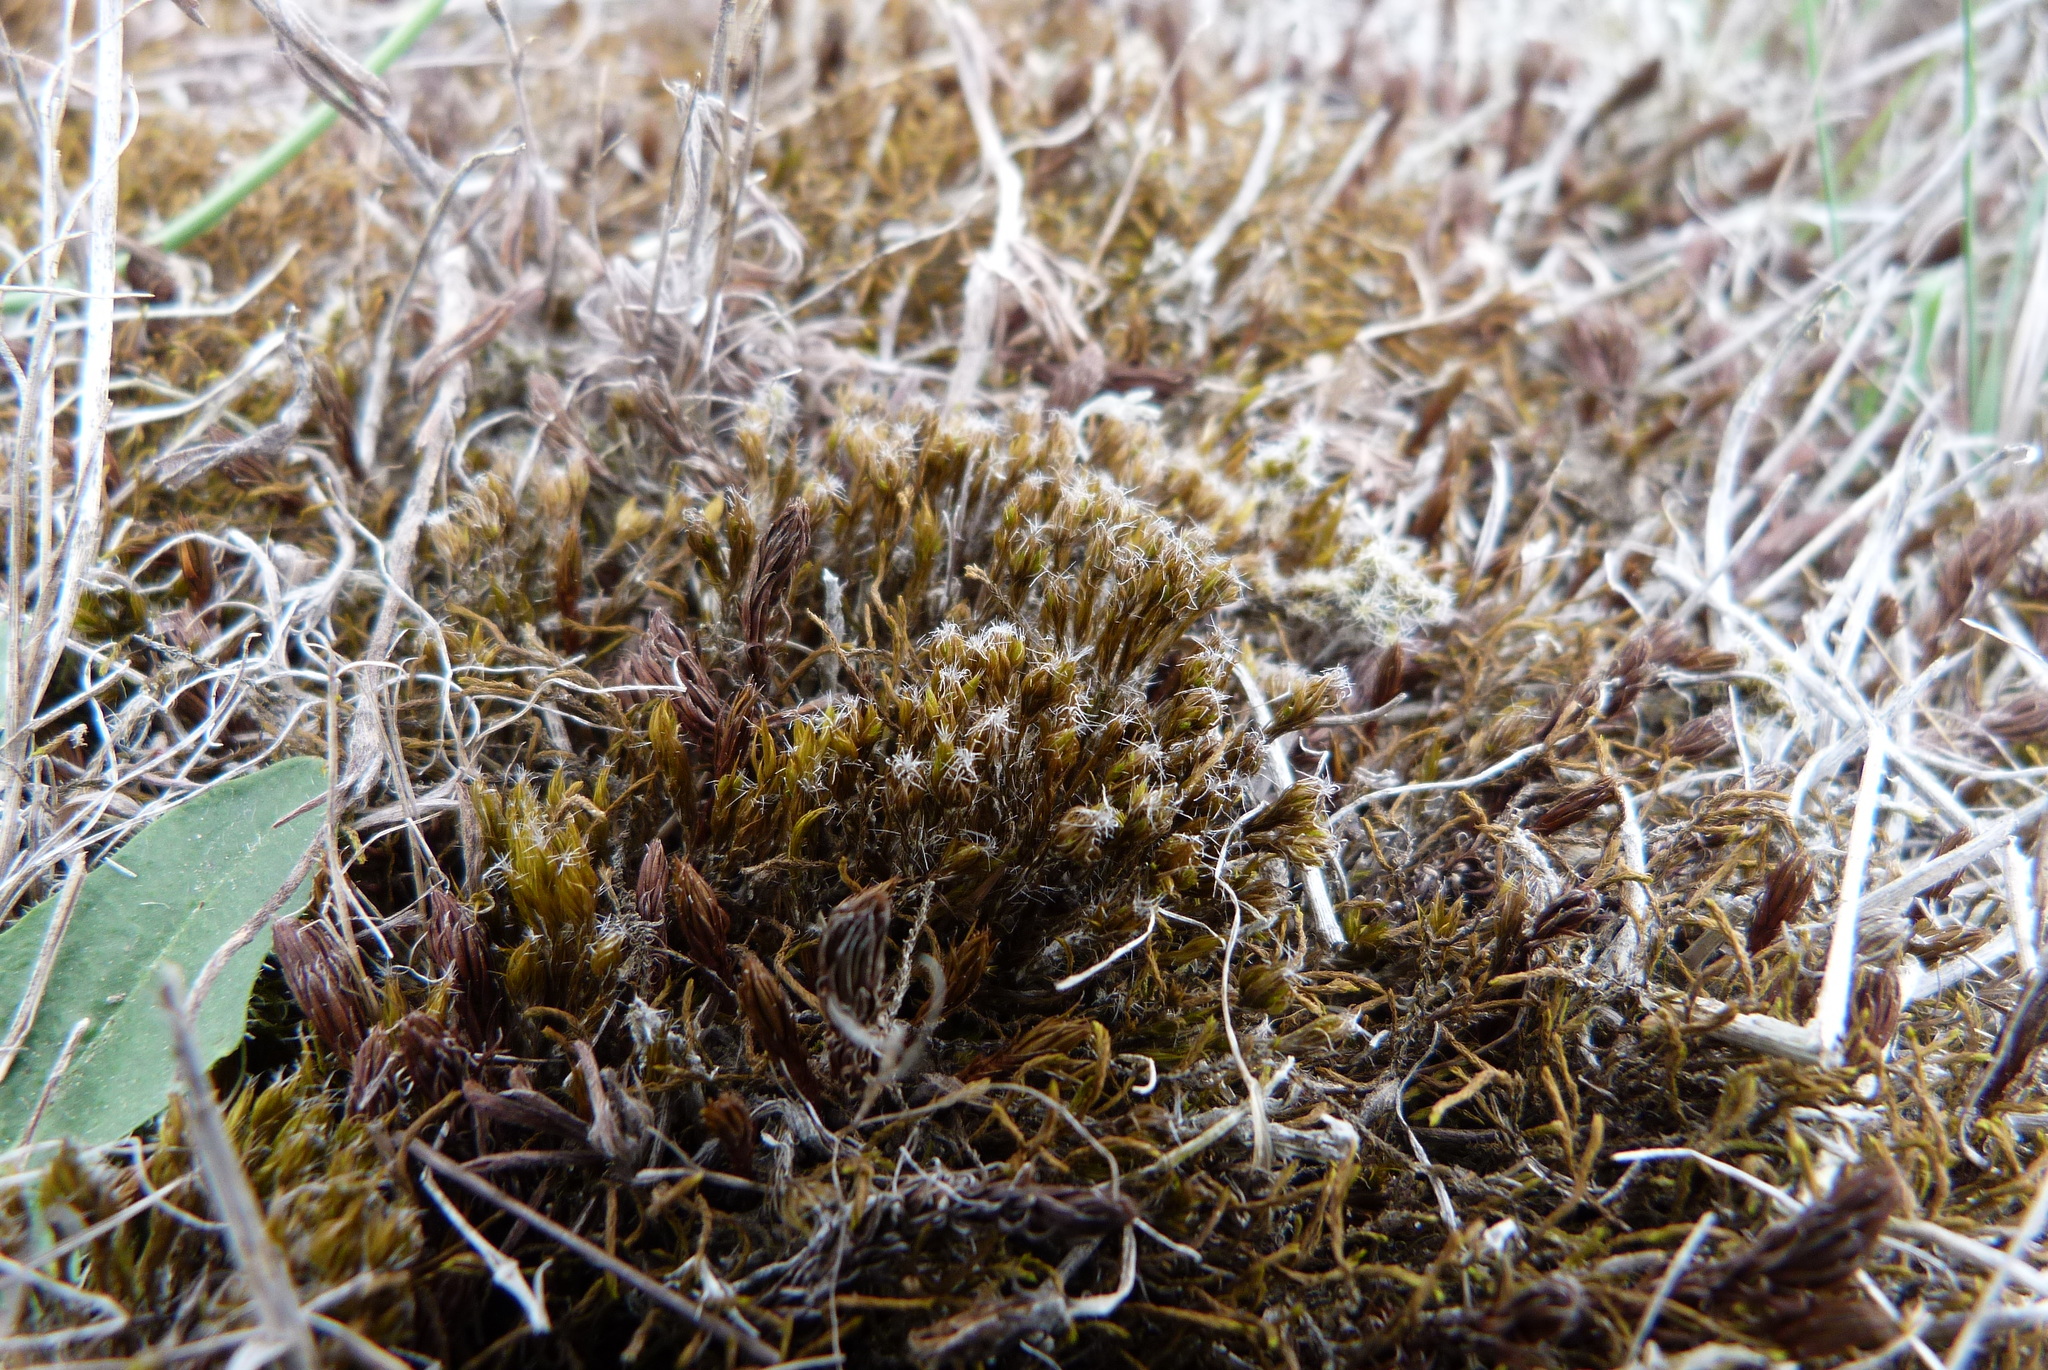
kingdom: Plantae
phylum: Bryophyta
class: Bryopsida
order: Dicranales
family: Leucobryaceae
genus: Campylopus
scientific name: Campylopus introflexus
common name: Heath star moss
